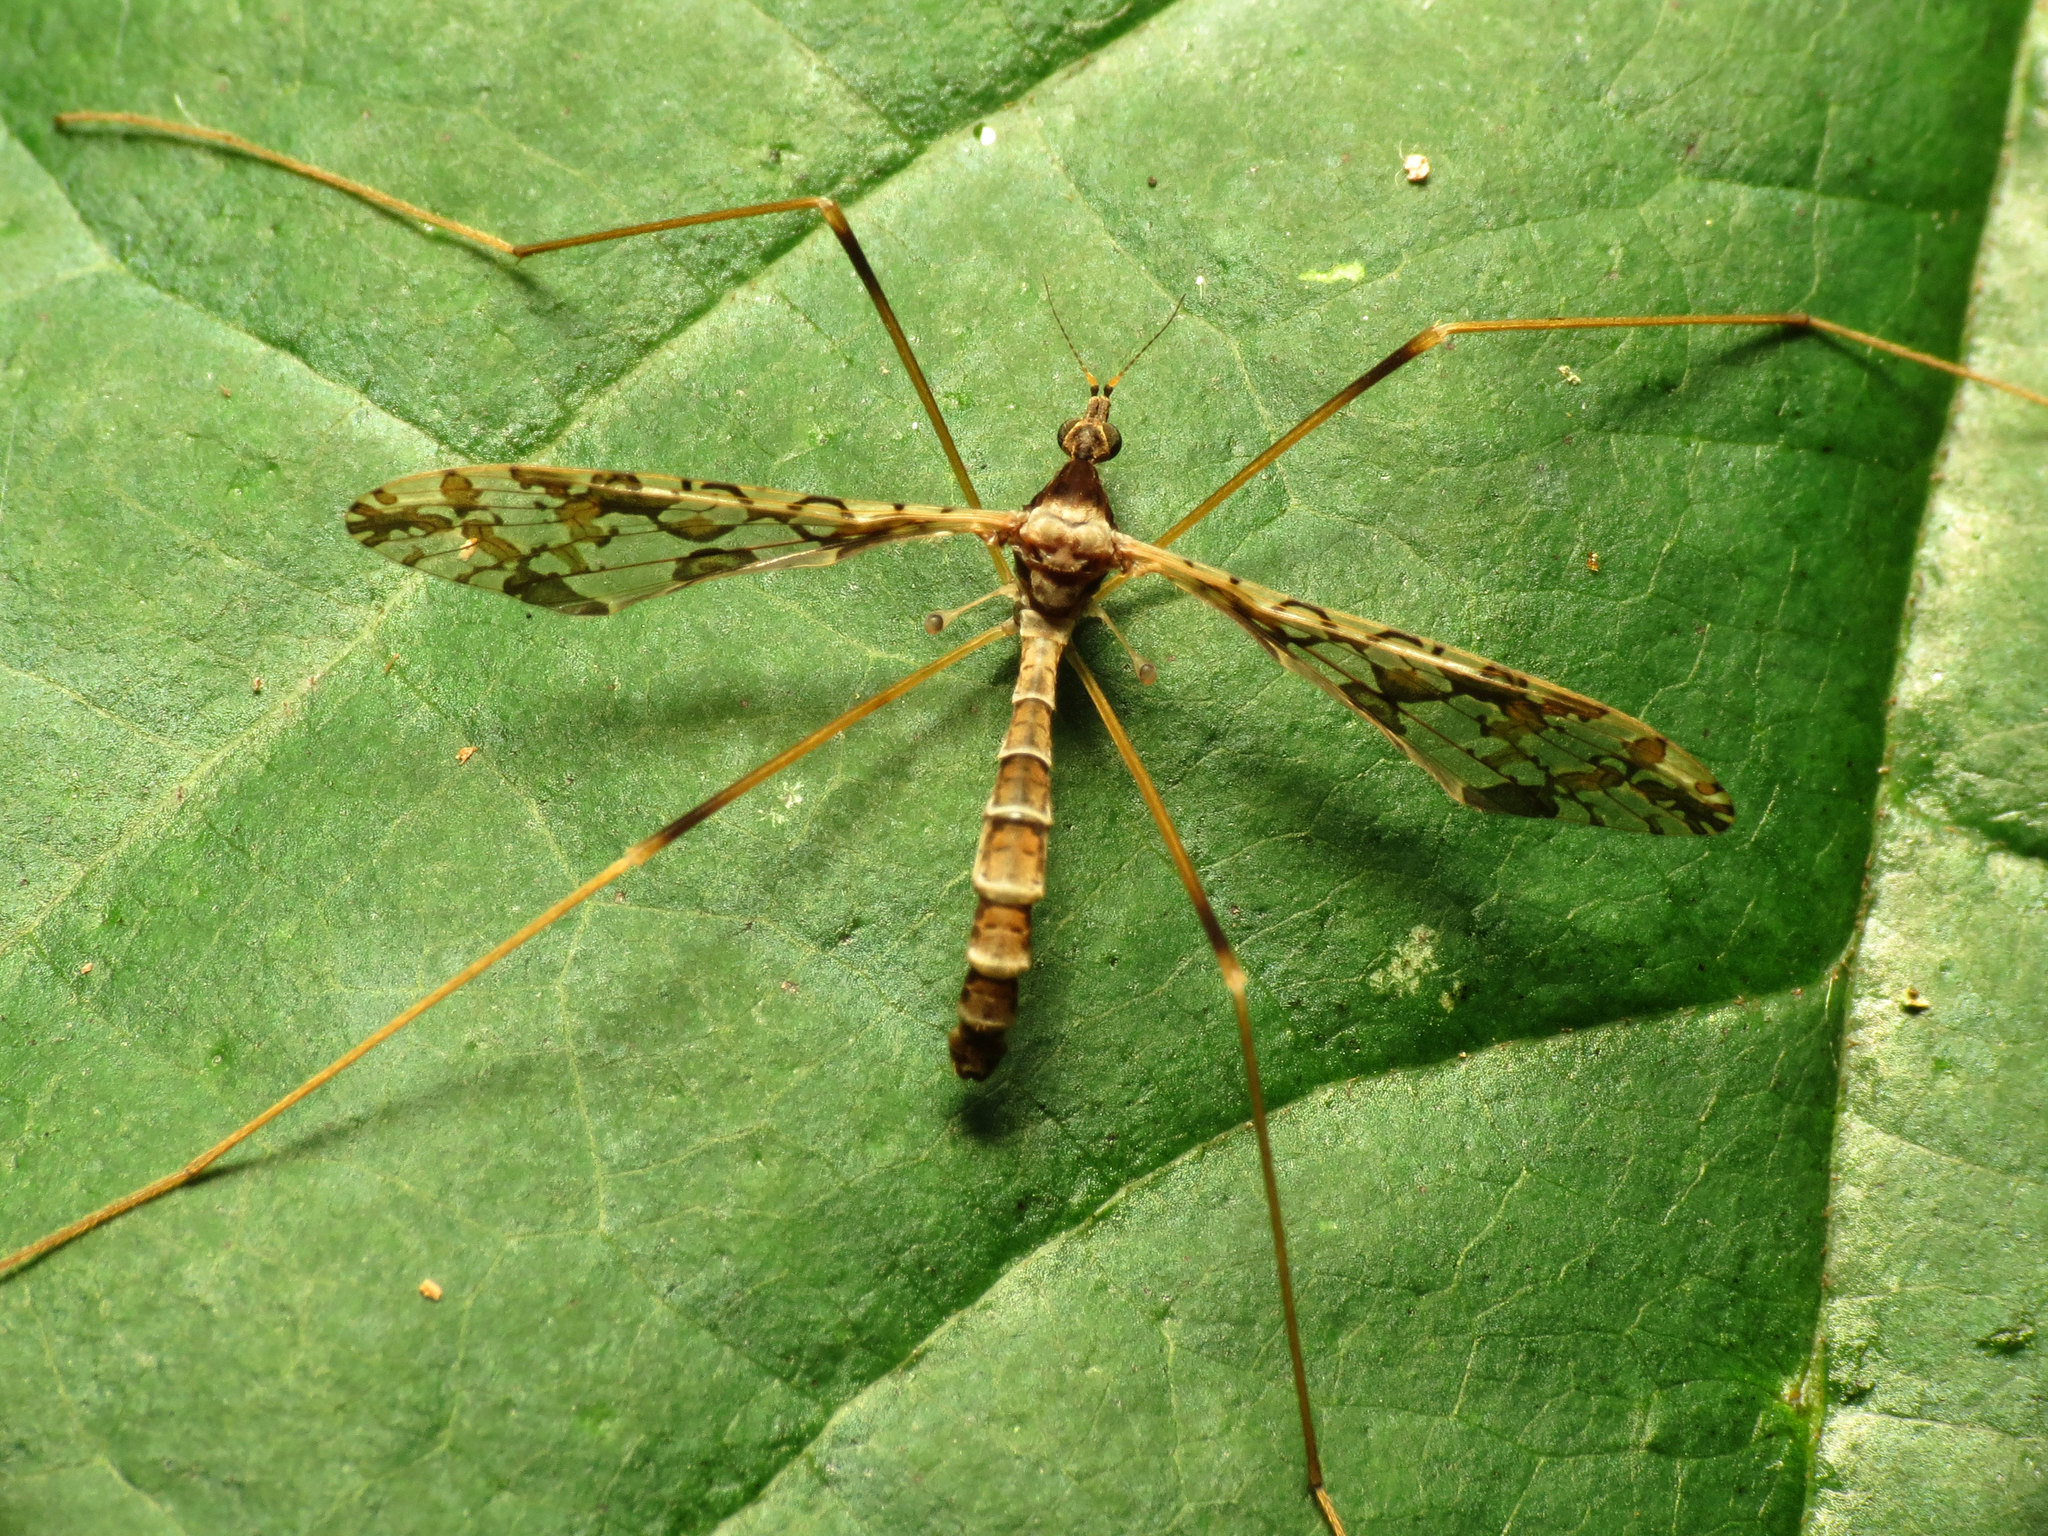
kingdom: Animalia
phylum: Arthropoda
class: Insecta
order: Diptera
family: Limoniidae
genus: Epiphragma
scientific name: Epiphragma solatrix
